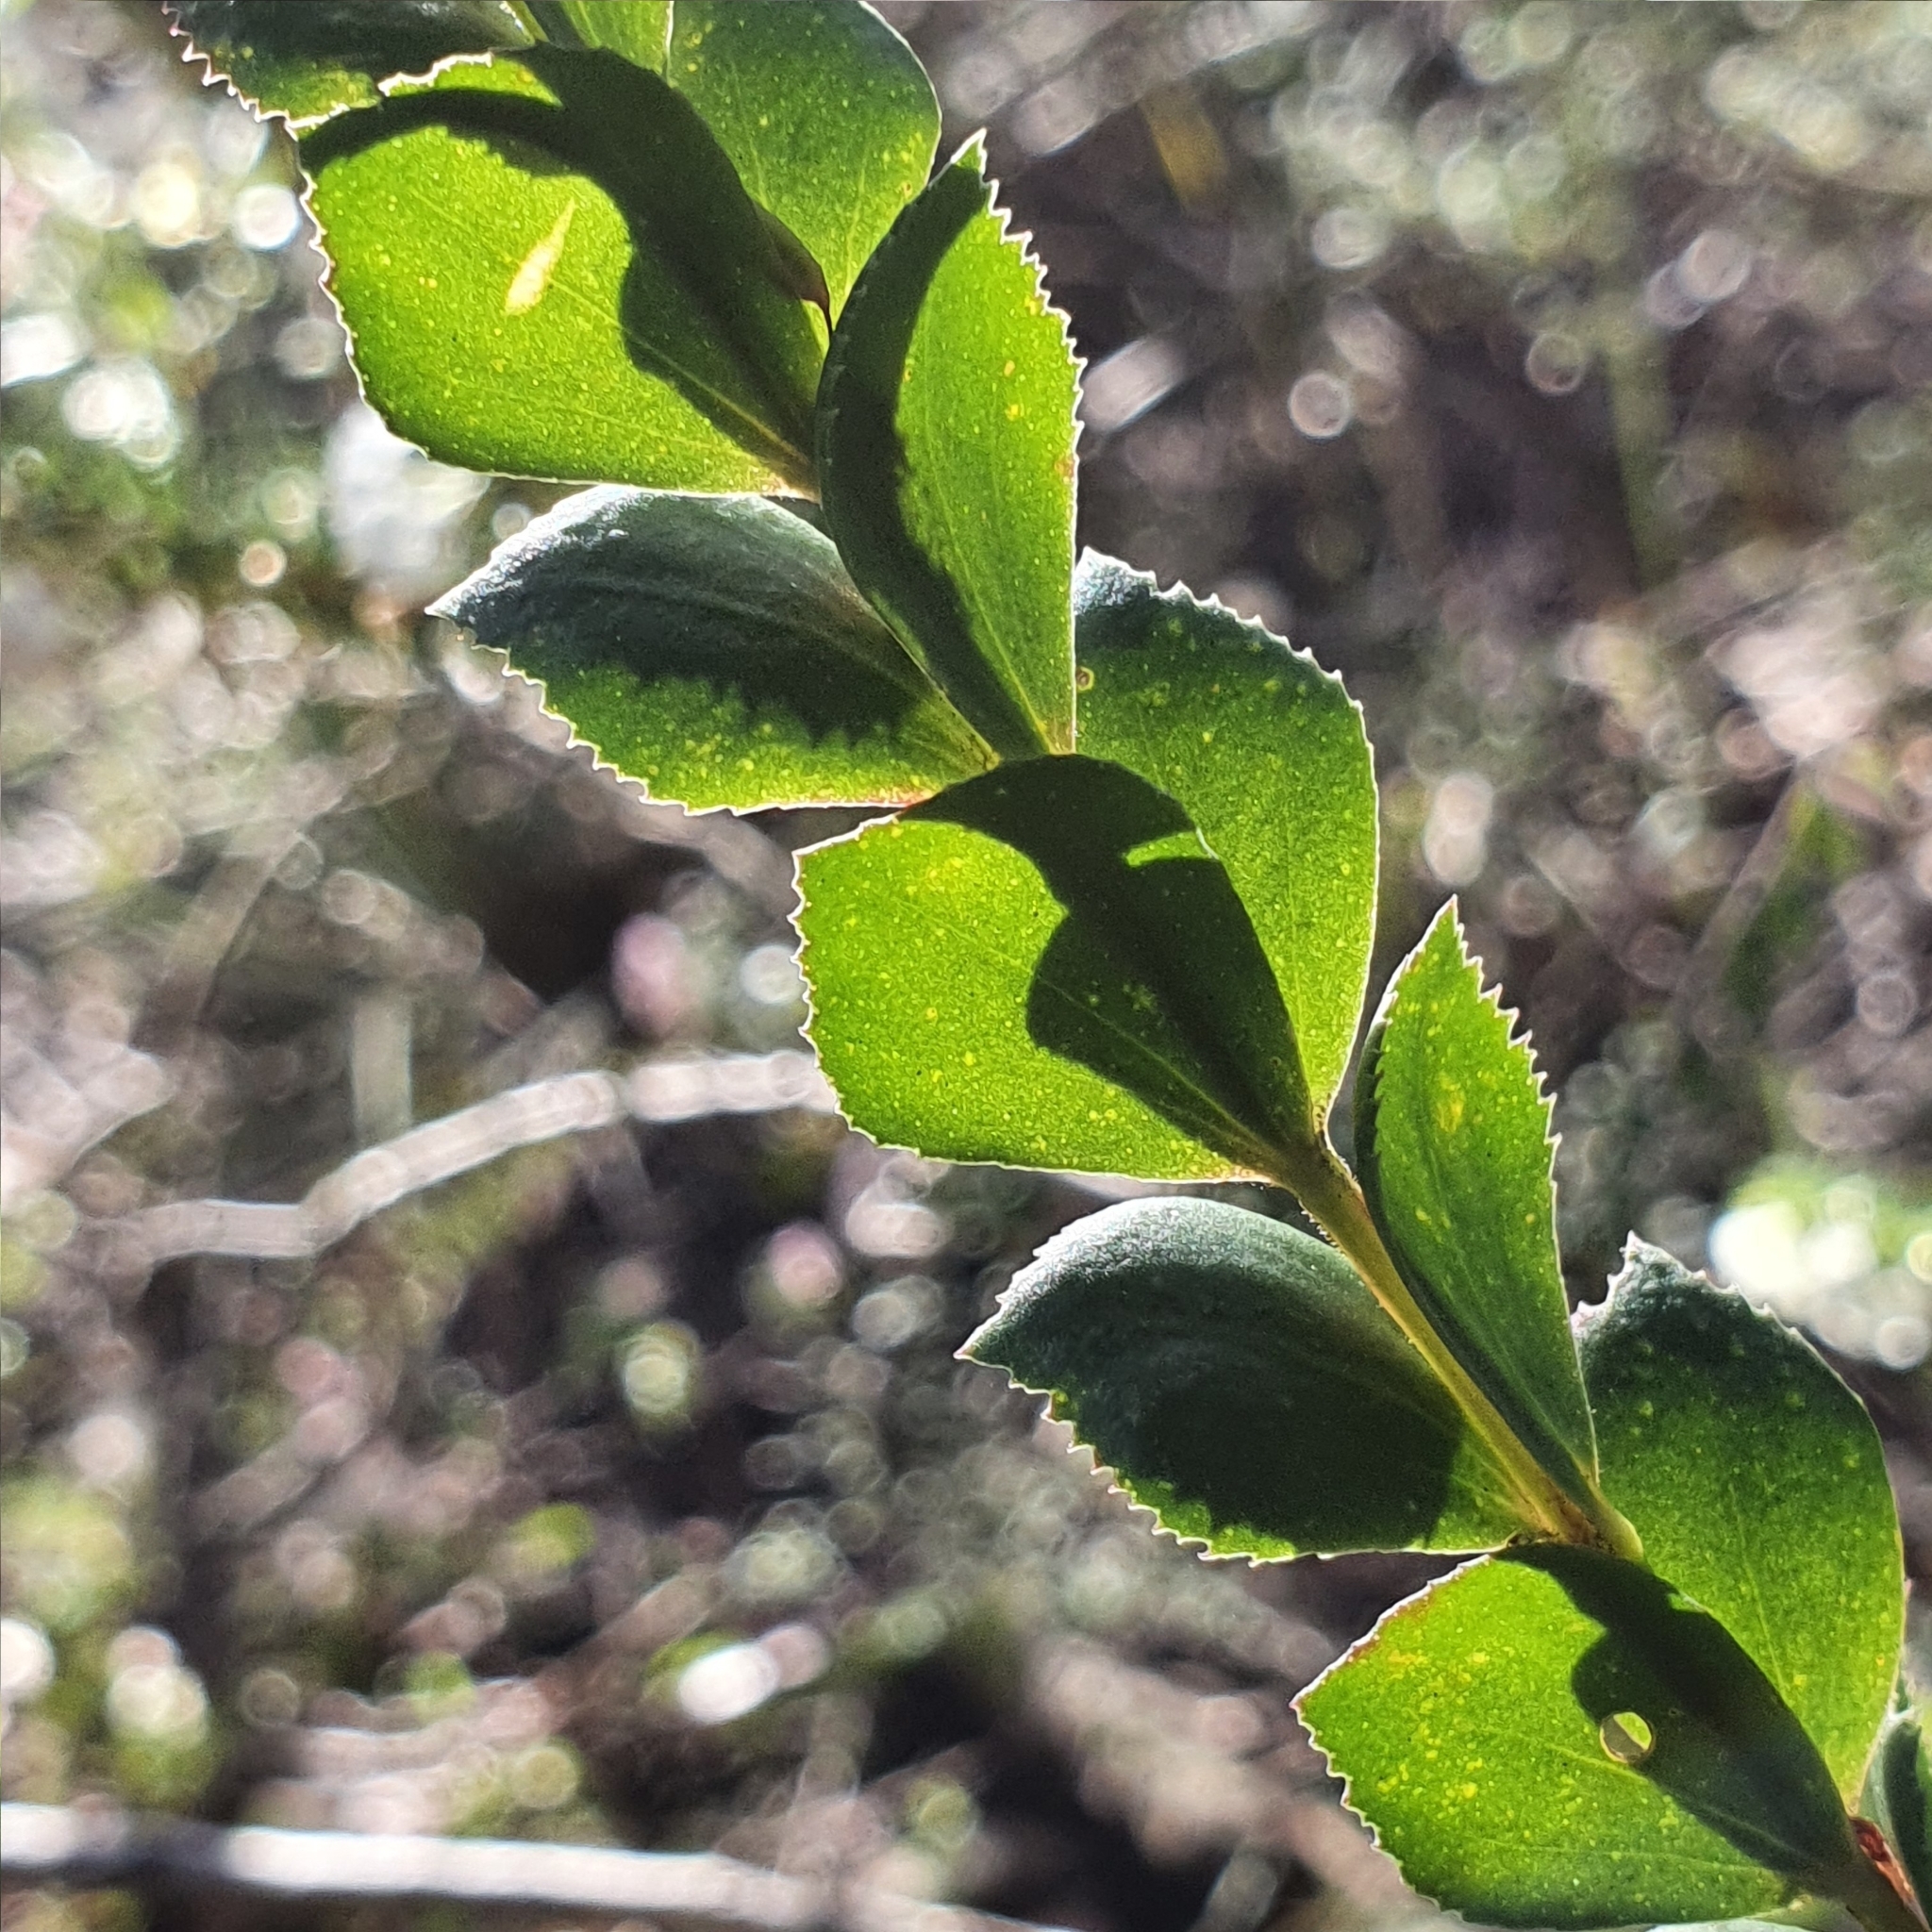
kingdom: Plantae
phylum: Tracheophyta
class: Magnoliopsida
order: Sapindales
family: Rutaceae
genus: Boronia
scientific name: Boronia serrulata
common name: Rose boronia
